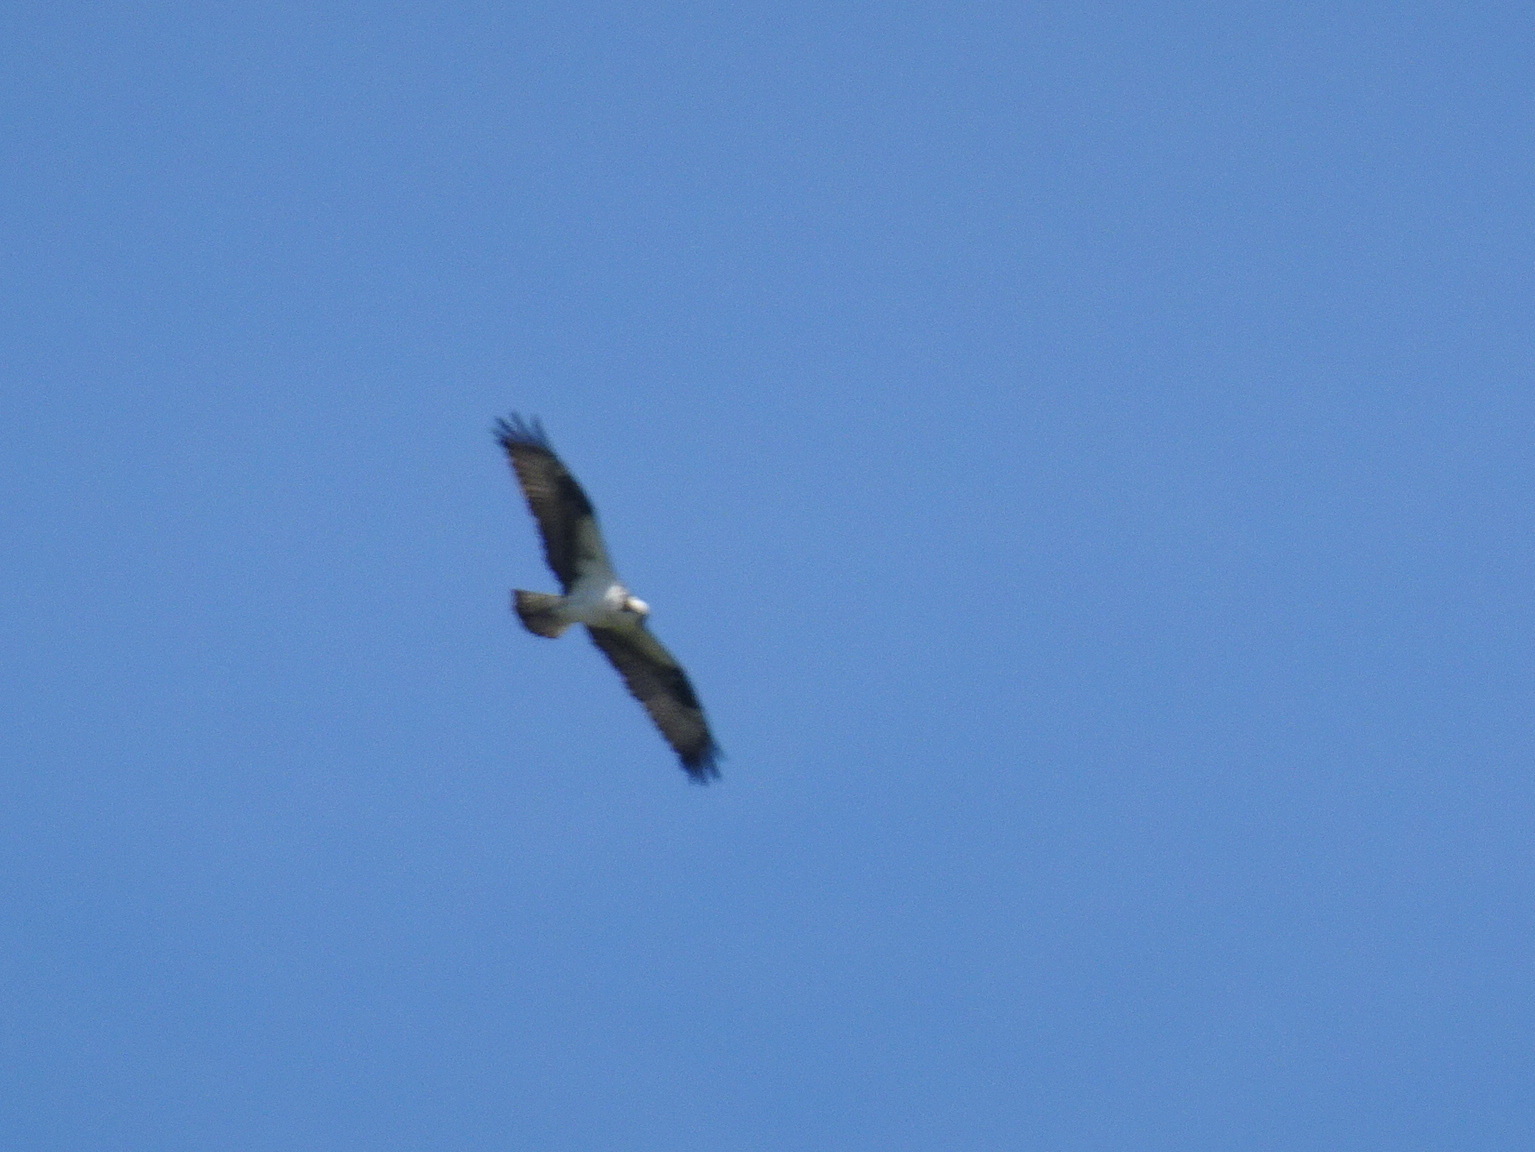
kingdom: Animalia
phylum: Chordata
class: Aves
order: Accipitriformes
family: Pandionidae
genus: Pandion
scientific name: Pandion haliaetus
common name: Osprey
